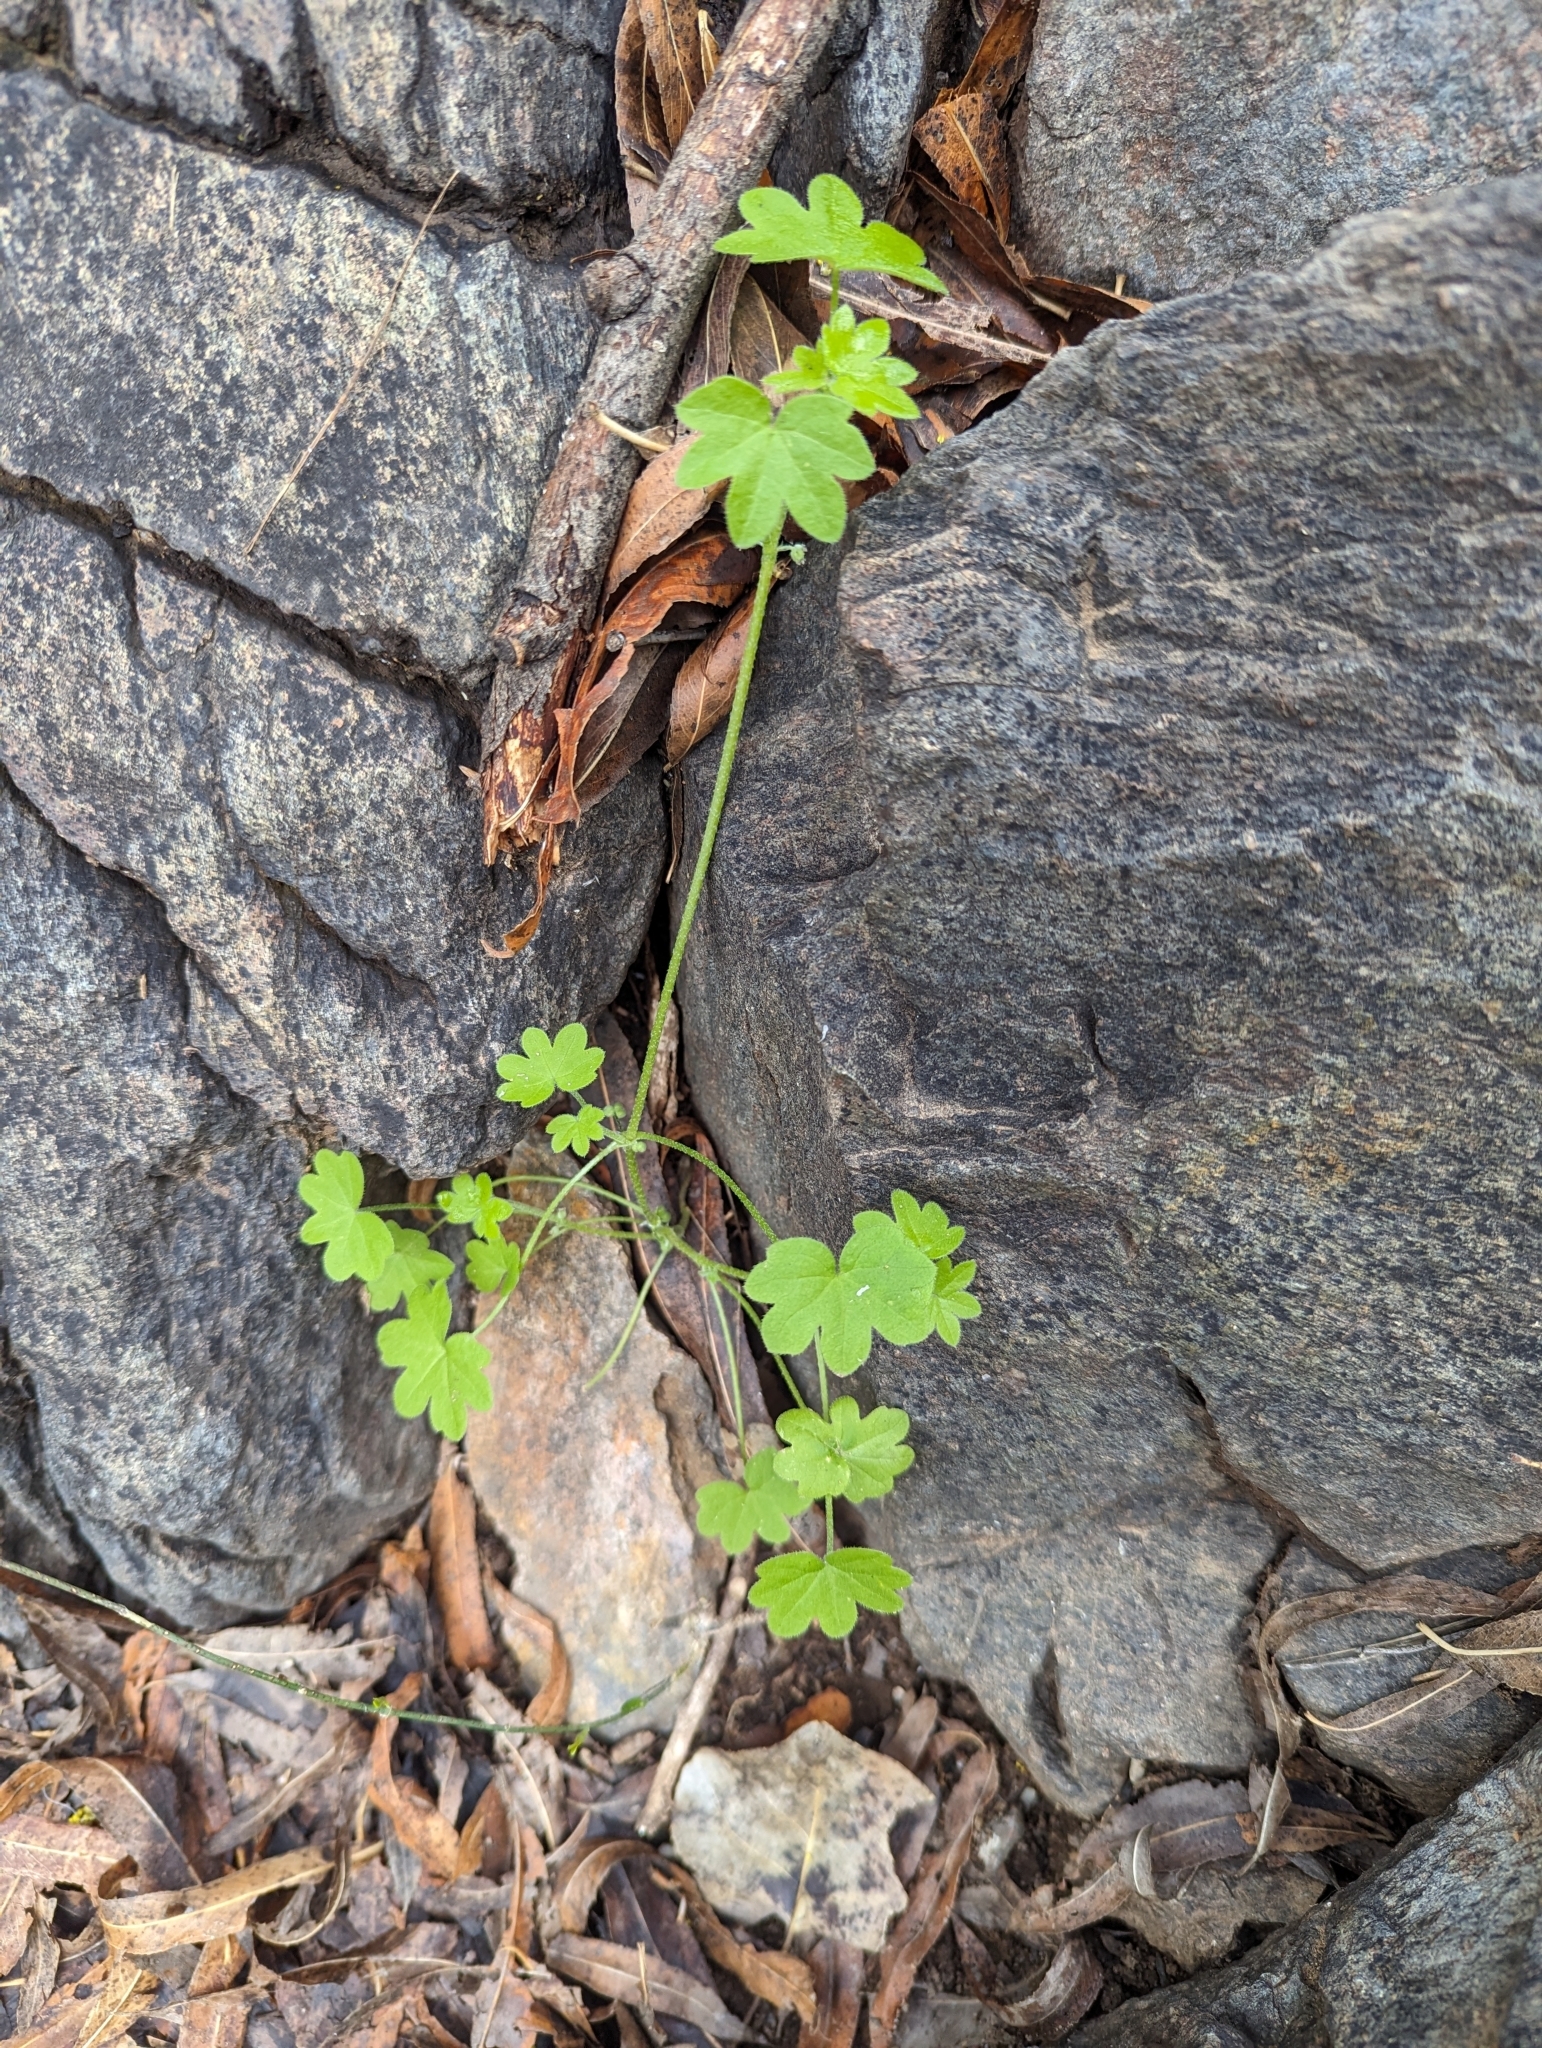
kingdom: Plantae
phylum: Tracheophyta
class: Magnoliopsida
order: Apiales
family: Apiaceae
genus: Bowlesia
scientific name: Bowlesia incana
